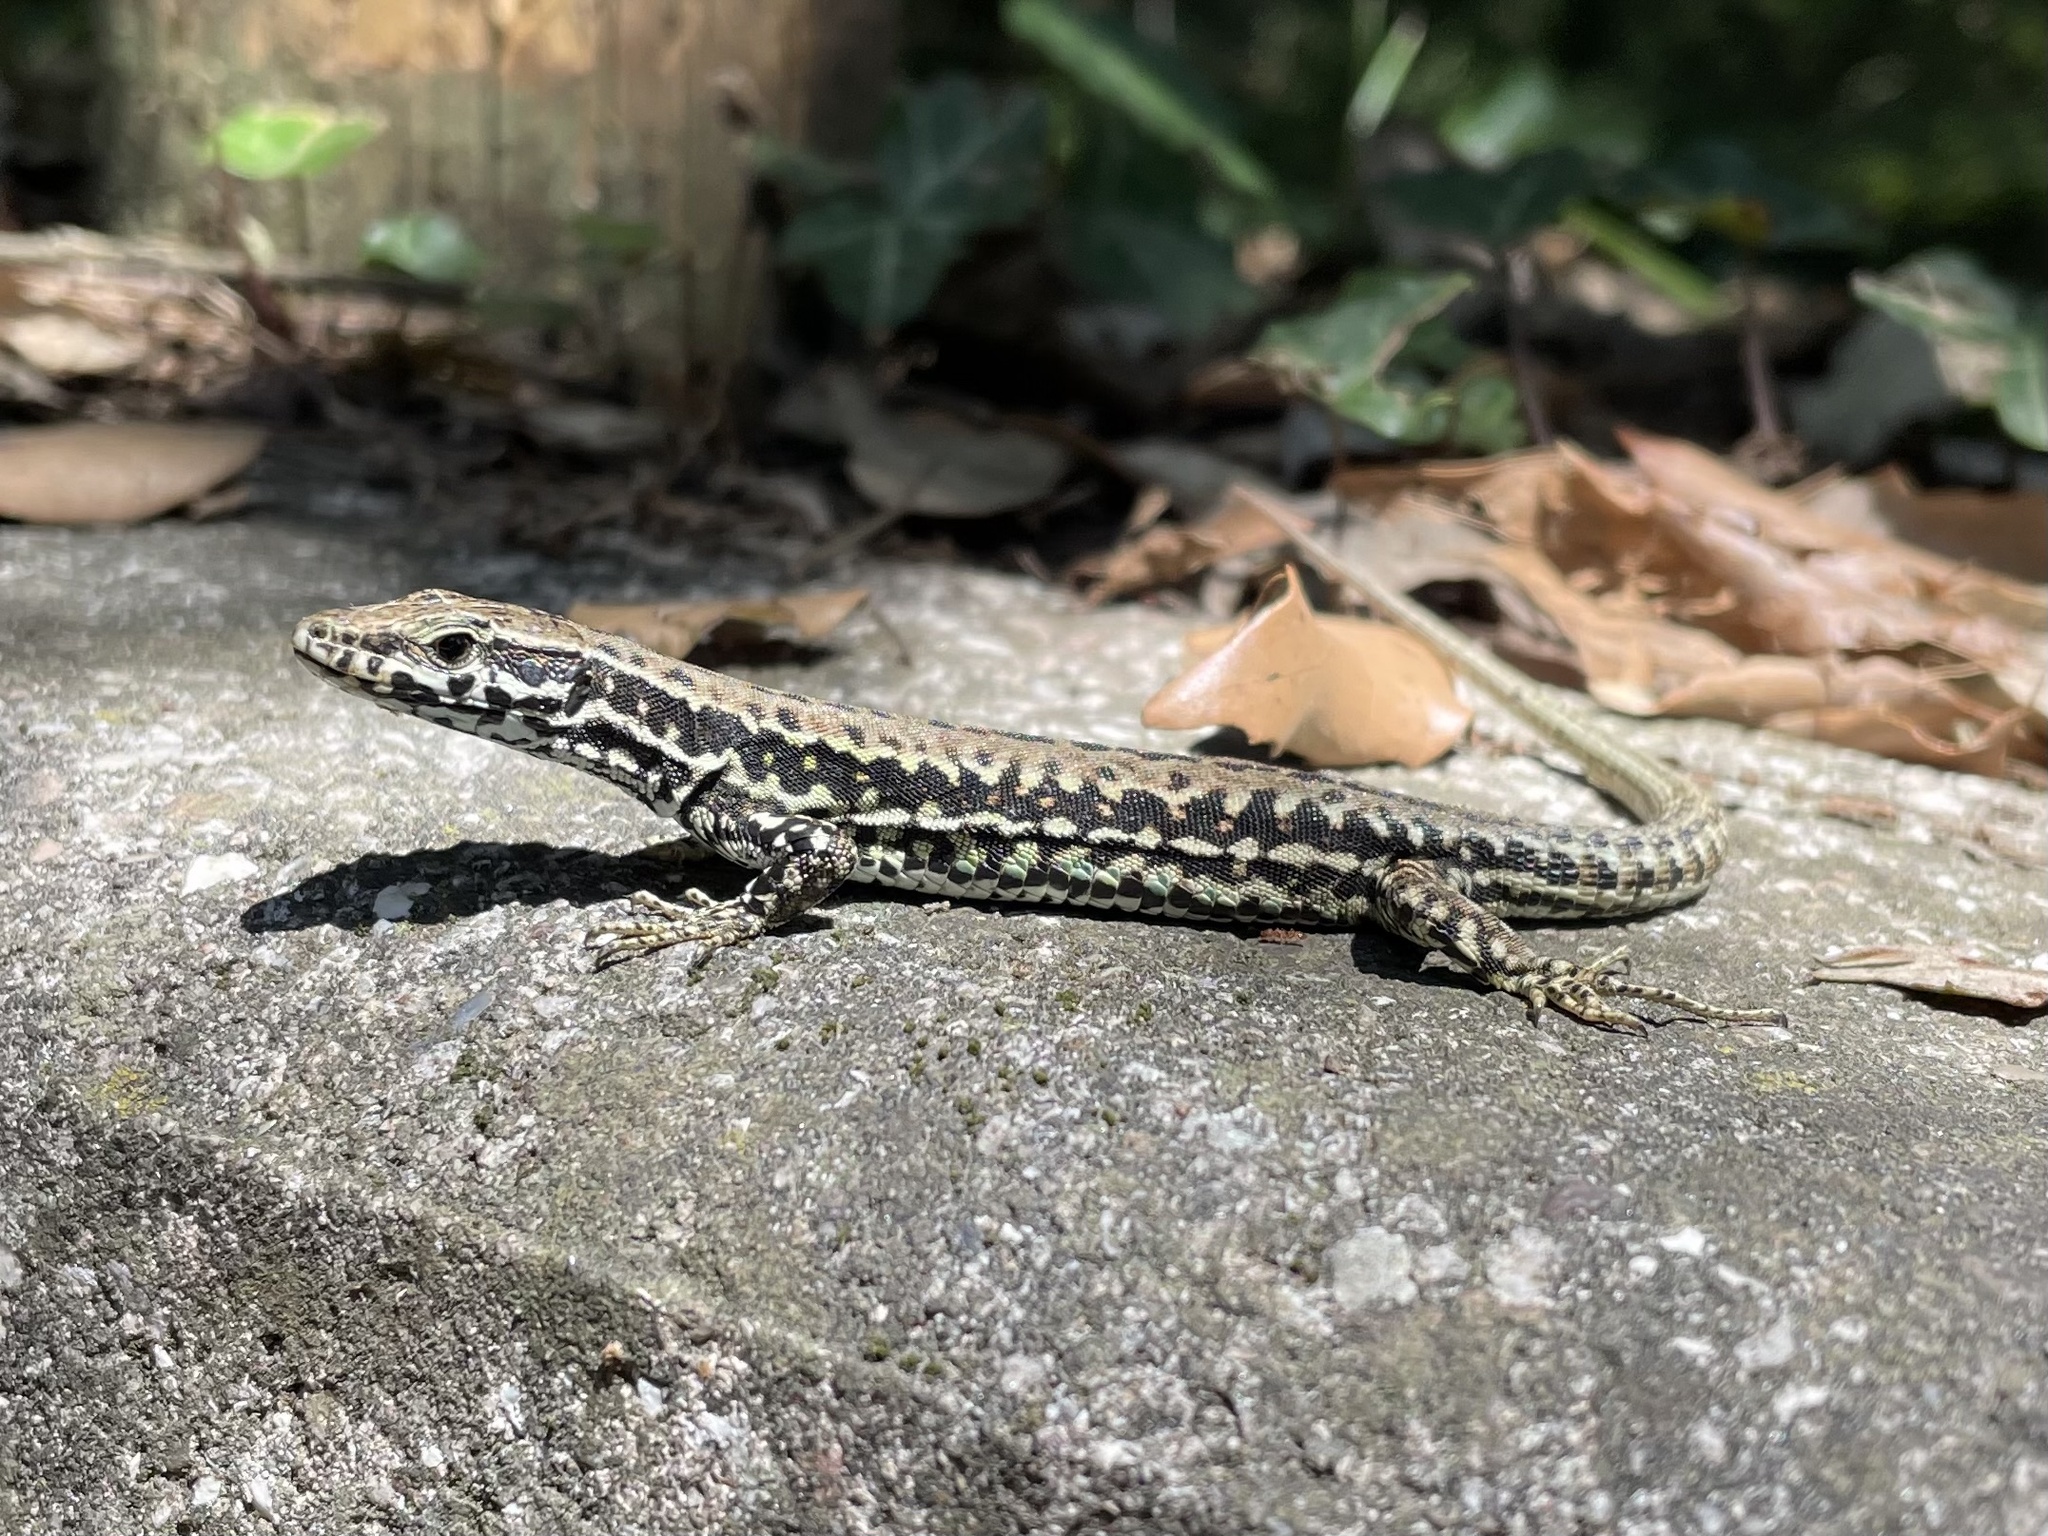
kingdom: Animalia
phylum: Chordata
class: Squamata
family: Lacertidae
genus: Podarcis
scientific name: Podarcis muralis
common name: Common wall lizard
